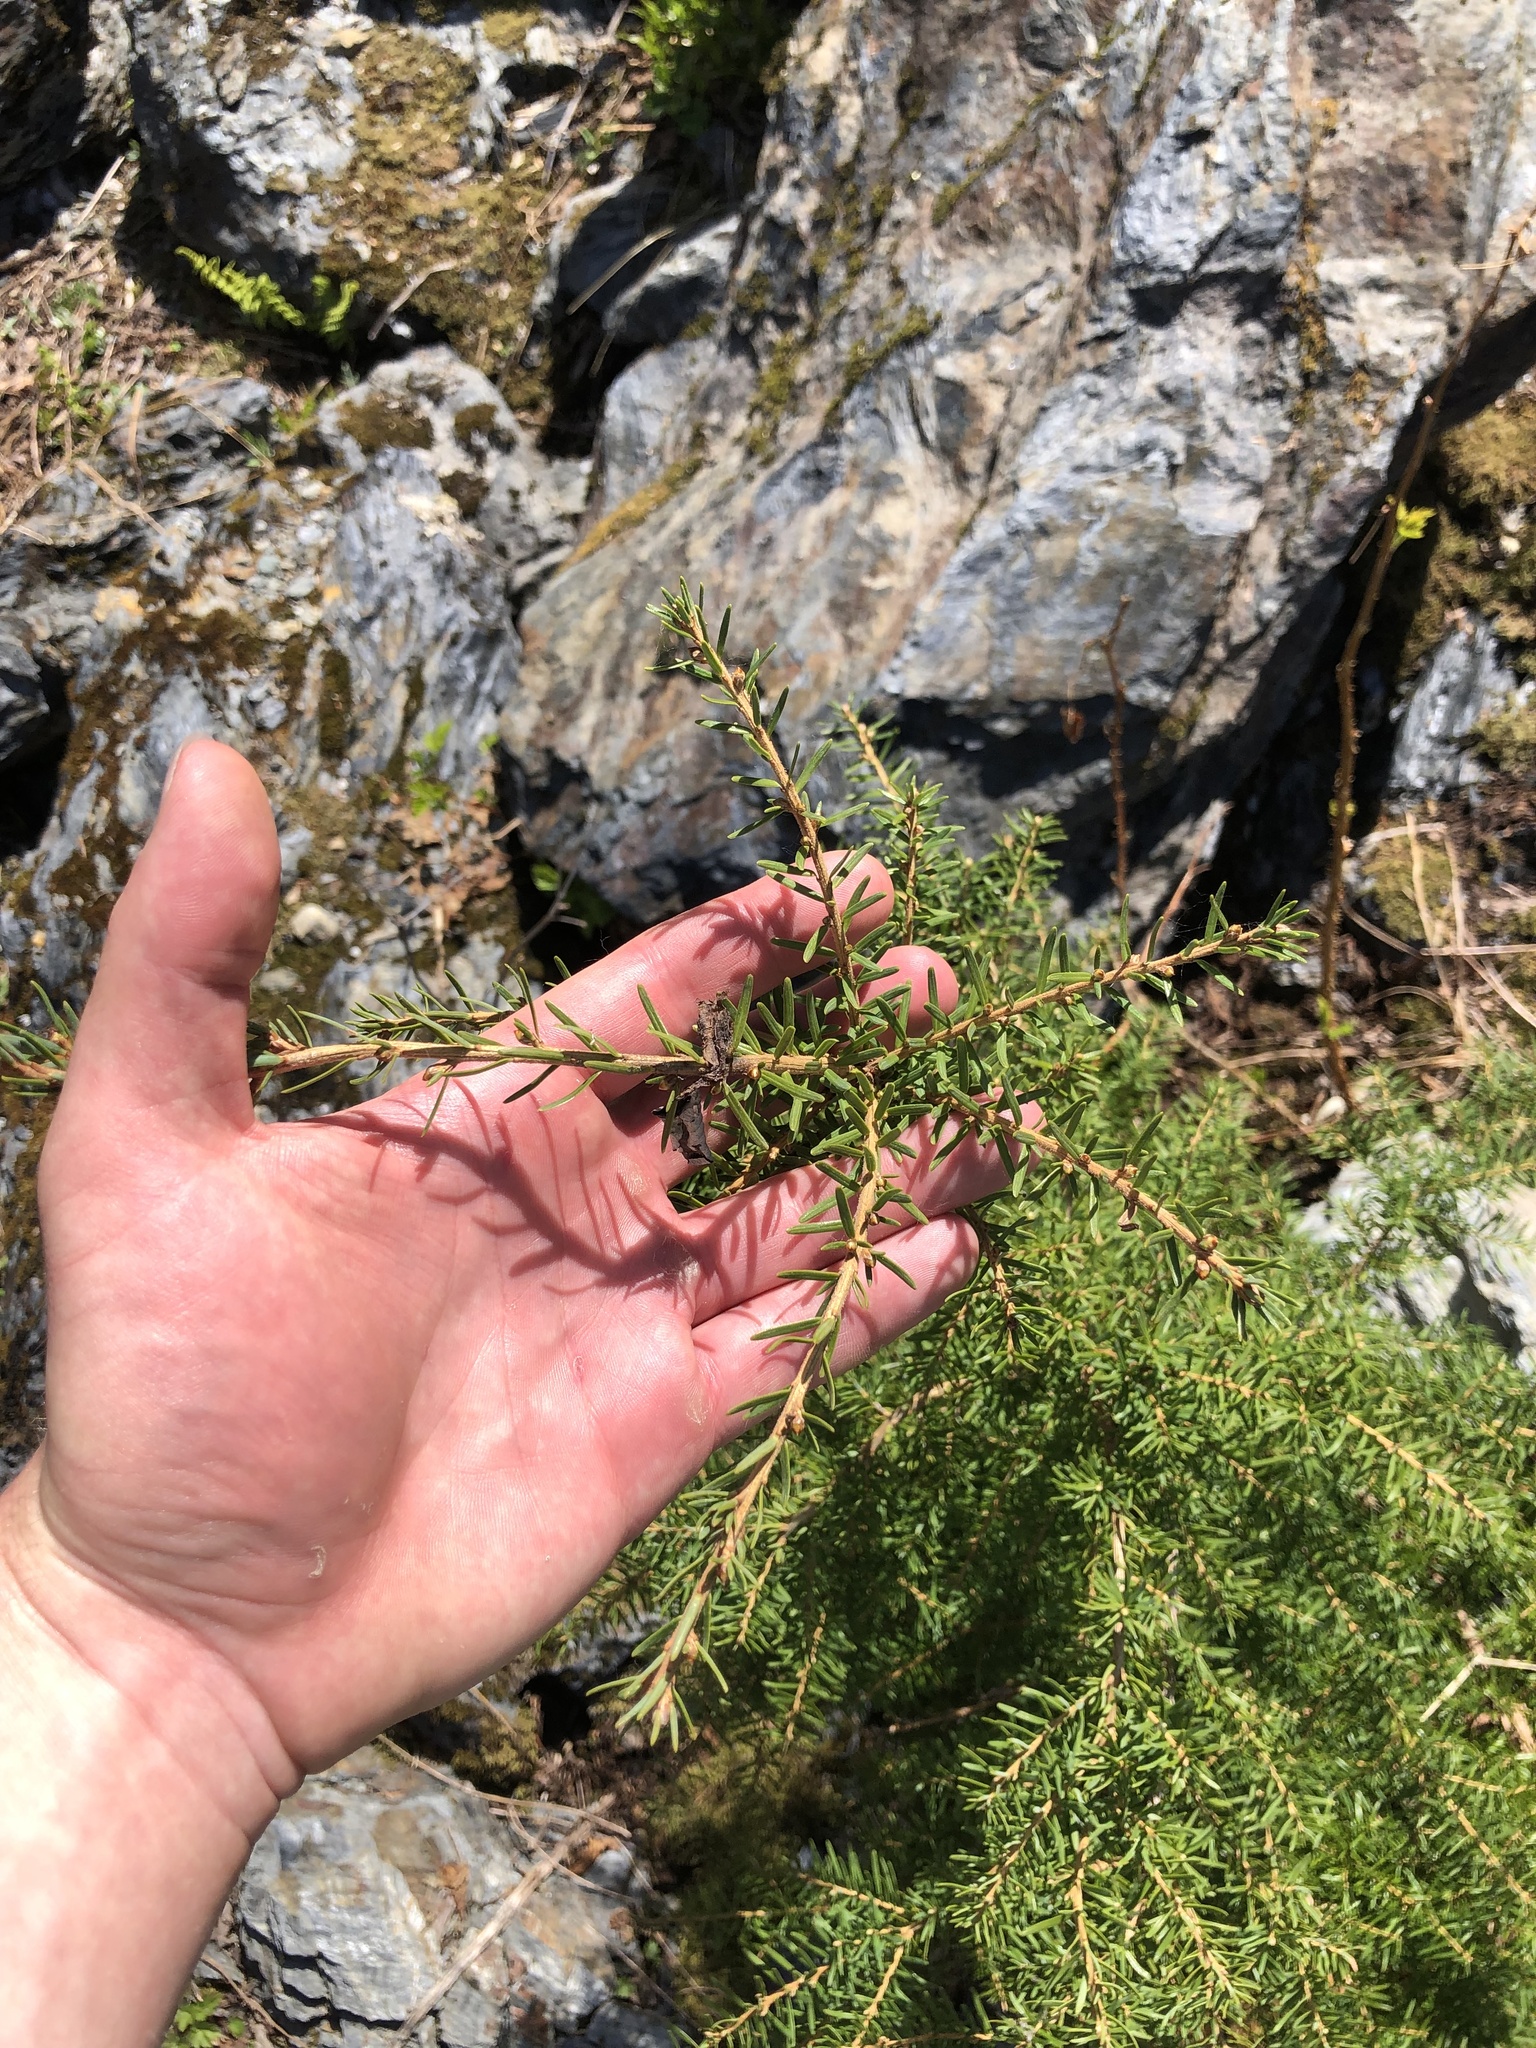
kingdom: Plantae
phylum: Tracheophyta
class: Pinopsida
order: Pinales
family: Pinaceae
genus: Tsuga
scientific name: Tsuga mertensiana
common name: Mountain hemlock
